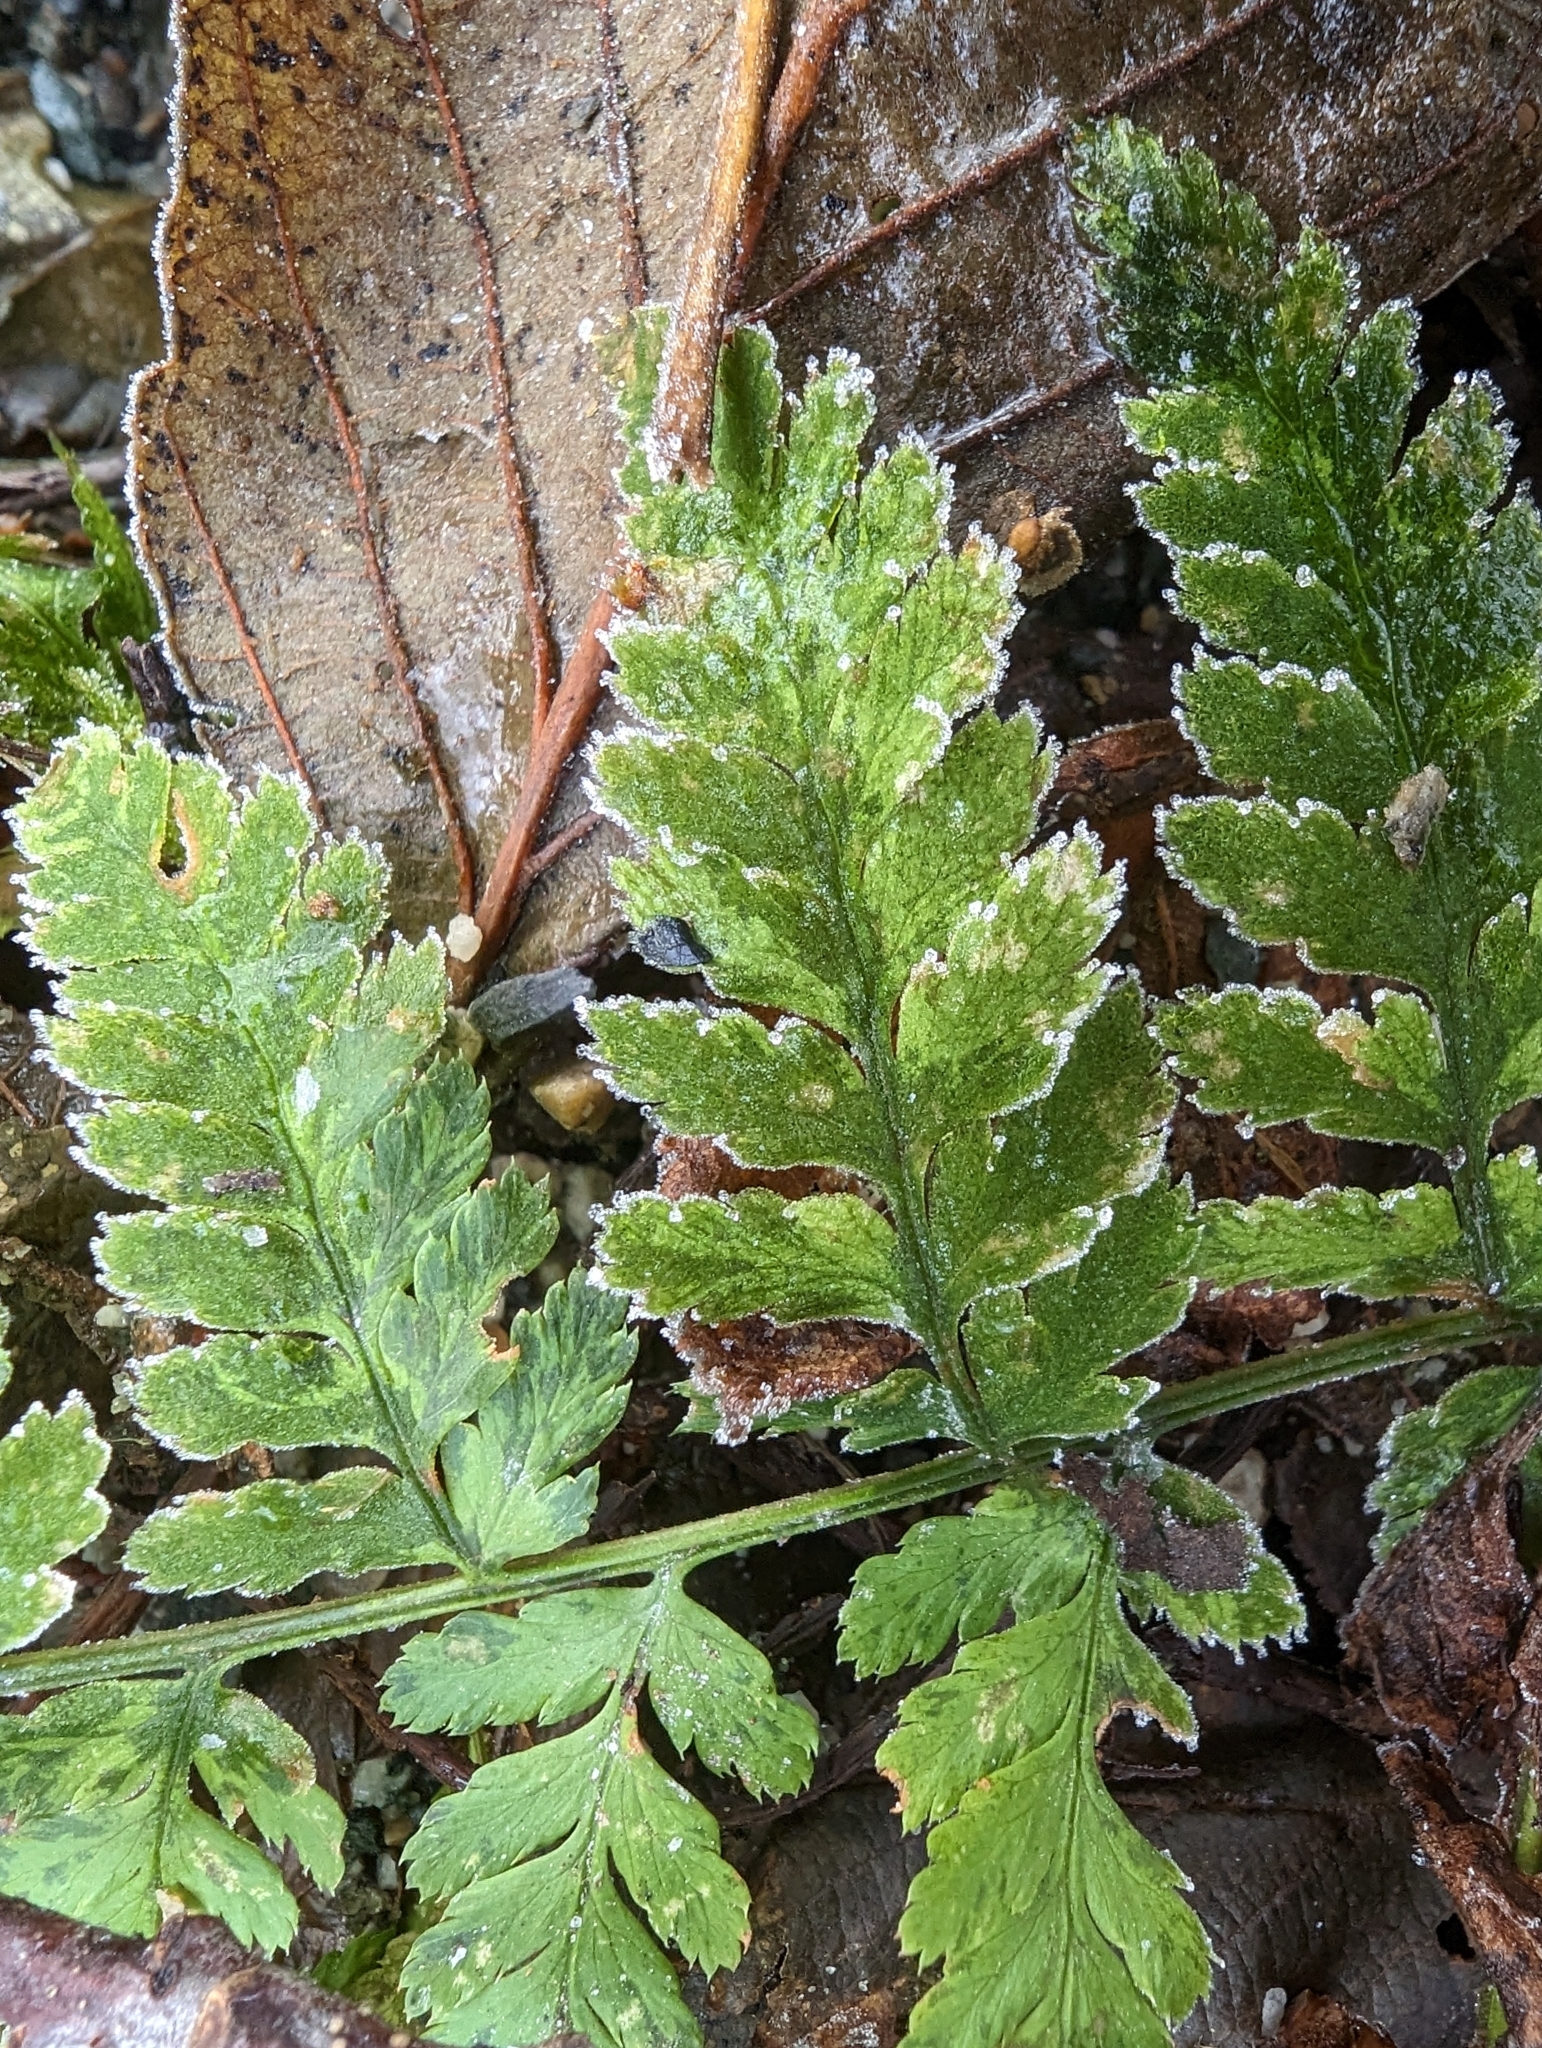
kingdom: Plantae
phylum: Tracheophyta
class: Polypodiopsida
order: Polypodiales
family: Dryopteridaceae
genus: Dryopteris
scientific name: Dryopteris expansa
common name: Northern buckler fern
